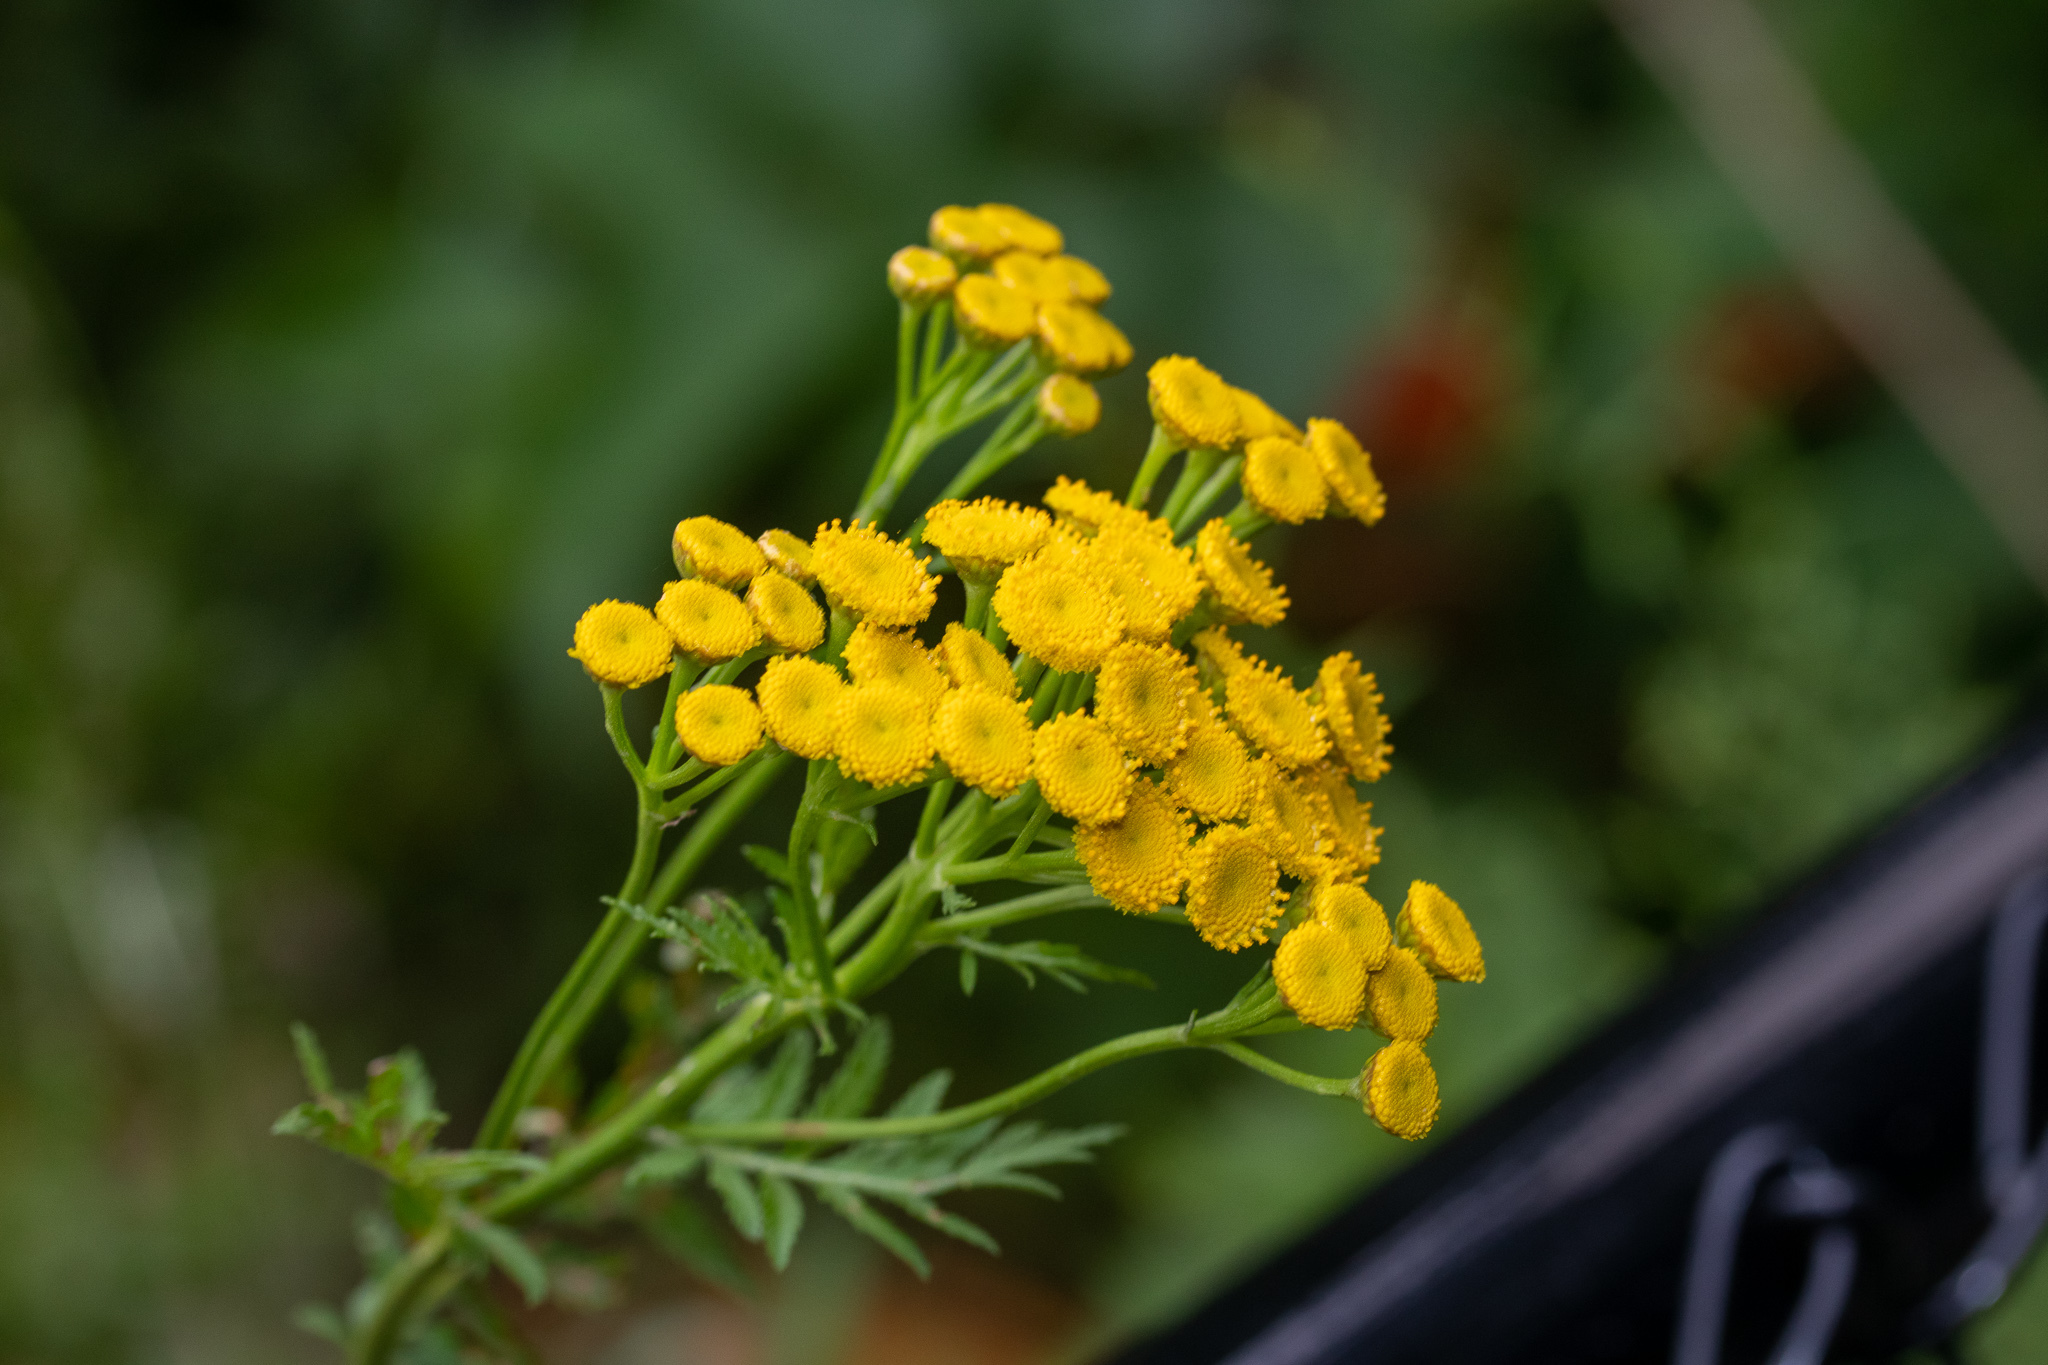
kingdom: Plantae
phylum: Tracheophyta
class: Magnoliopsida
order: Asterales
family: Asteraceae
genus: Tanacetum
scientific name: Tanacetum vulgare
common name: Common tansy
